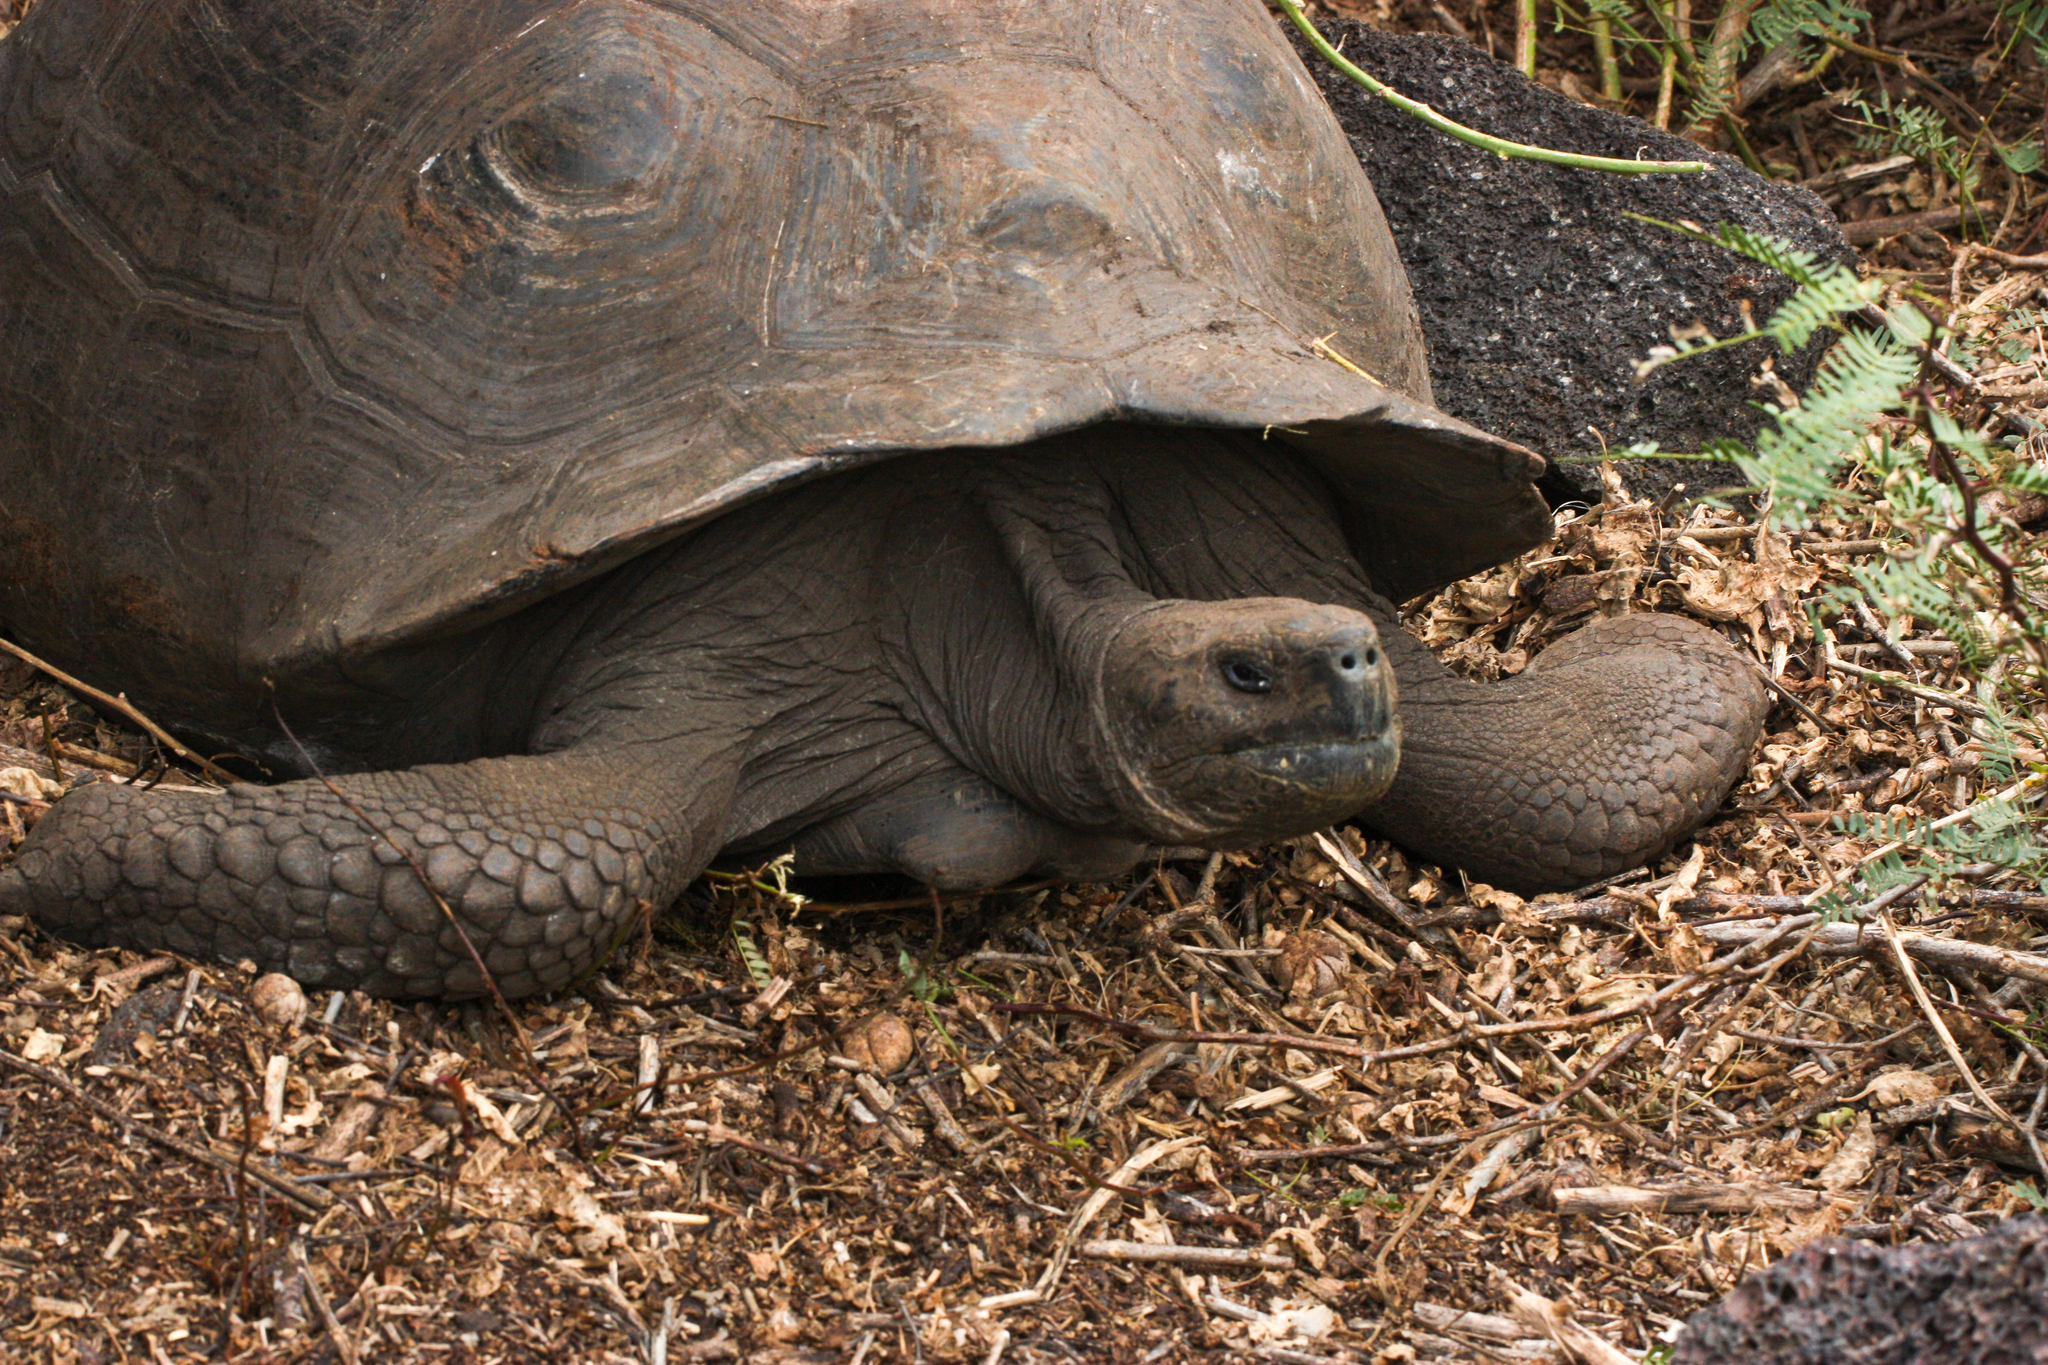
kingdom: Animalia
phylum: Chordata
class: Testudines
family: Testudinidae
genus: Chelonoidis
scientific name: Chelonoidis niger
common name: Charles island giant tortoise
